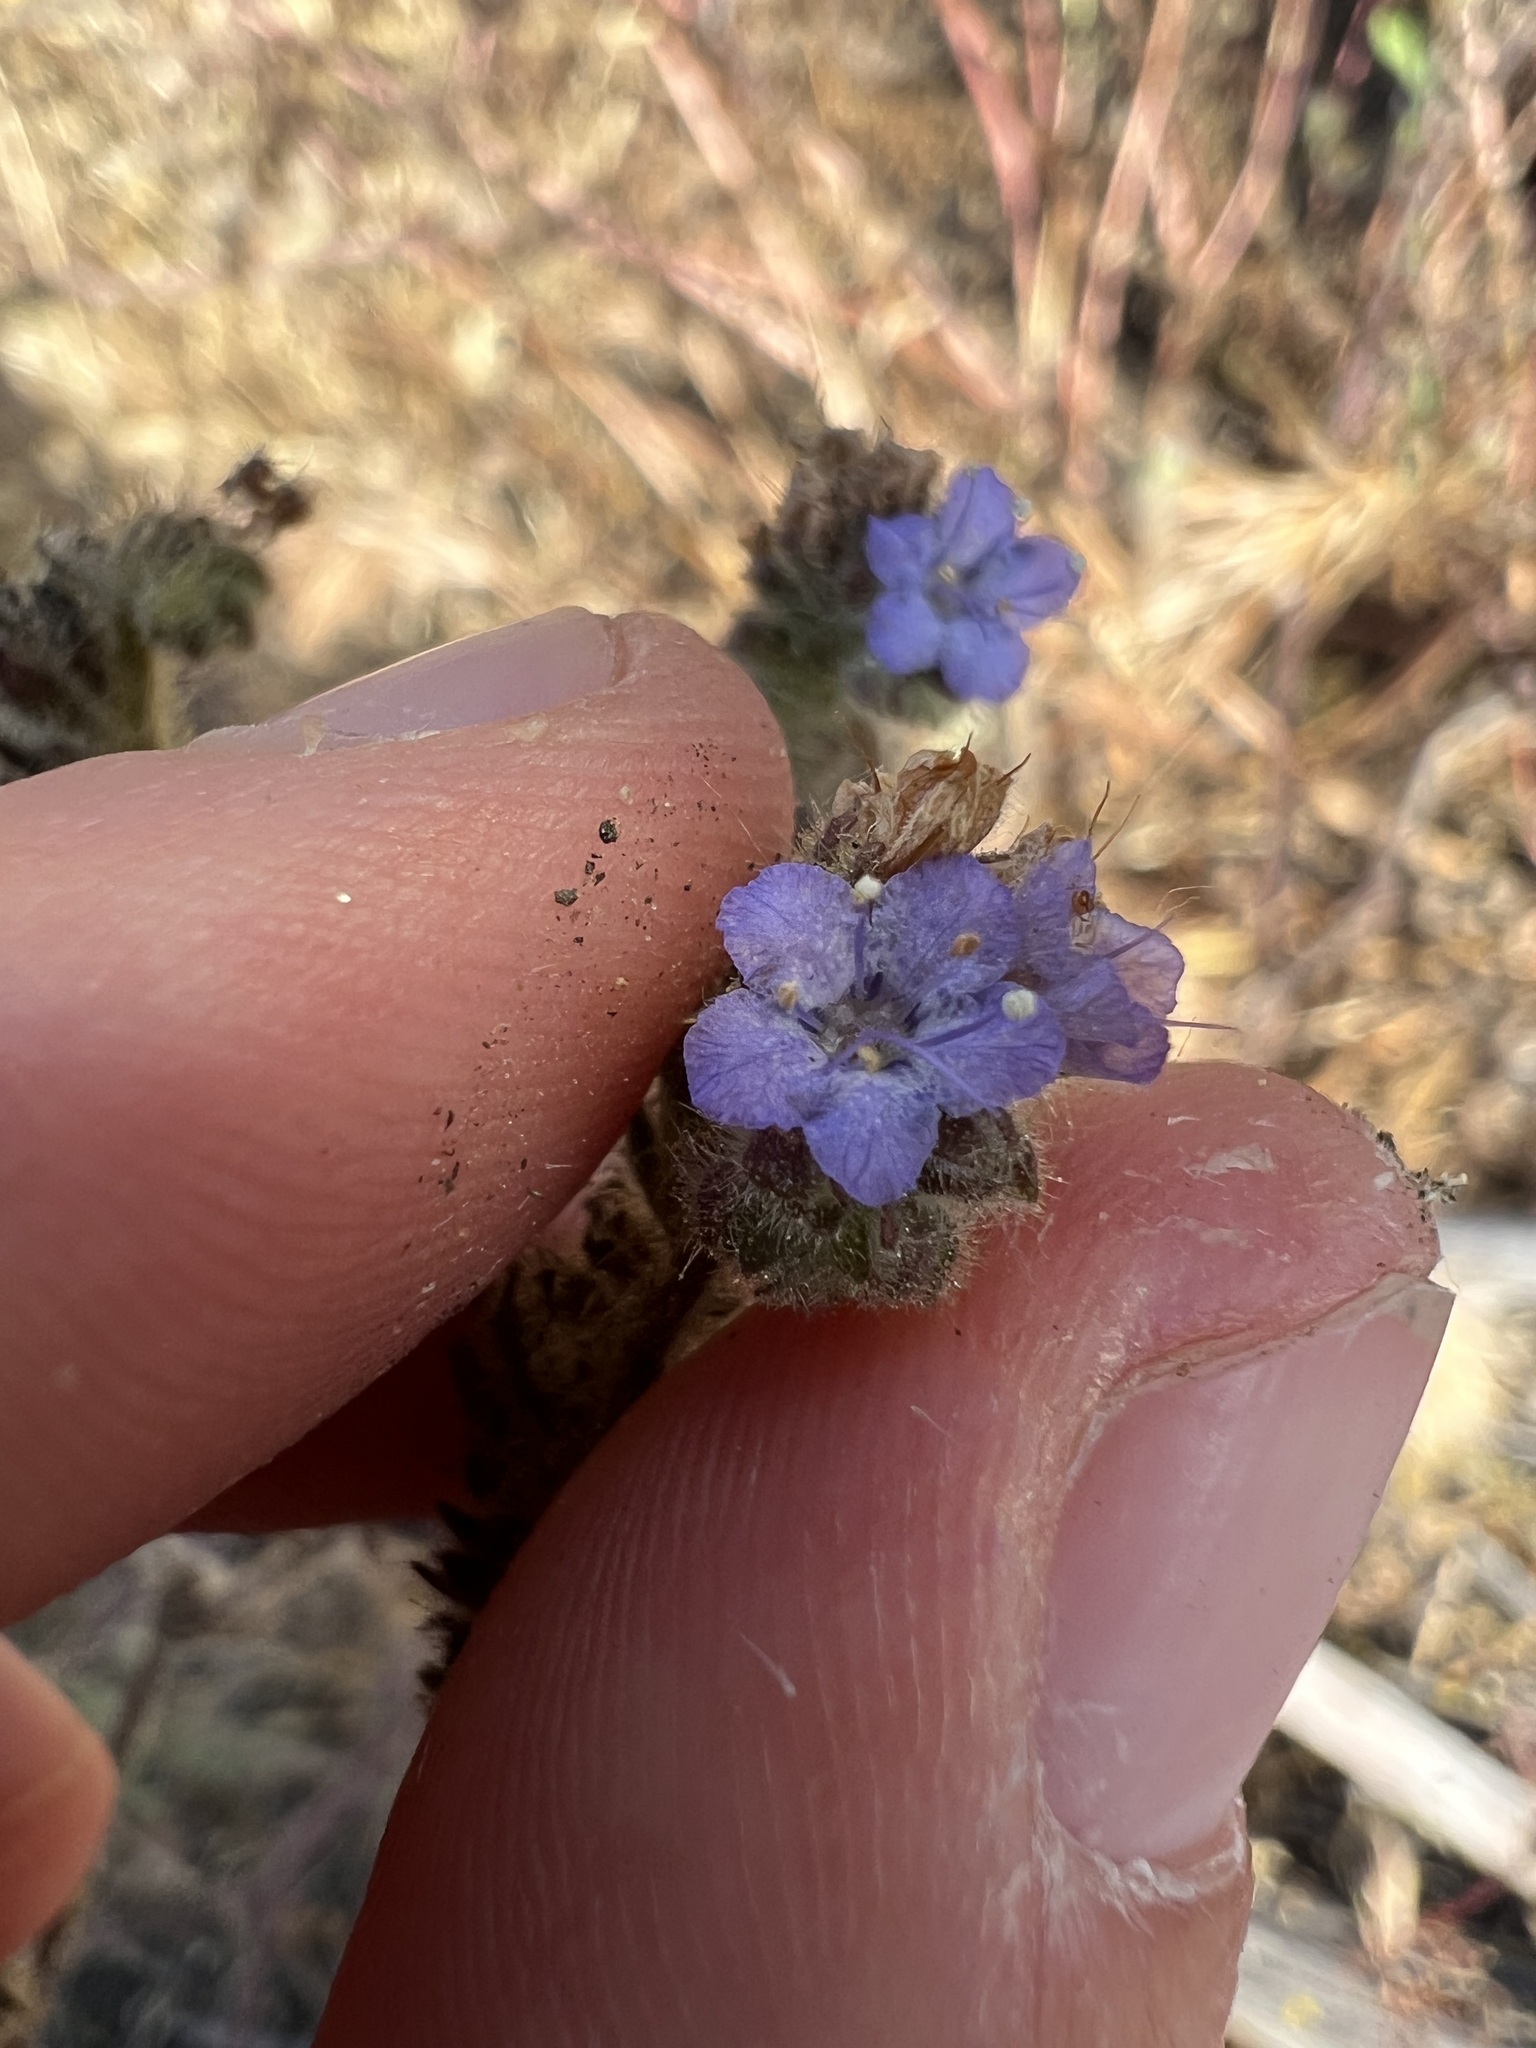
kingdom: Plantae
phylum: Tracheophyta
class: Magnoliopsida
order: Boraginales
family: Hydrophyllaceae
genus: Phacelia
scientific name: Phacelia distans
